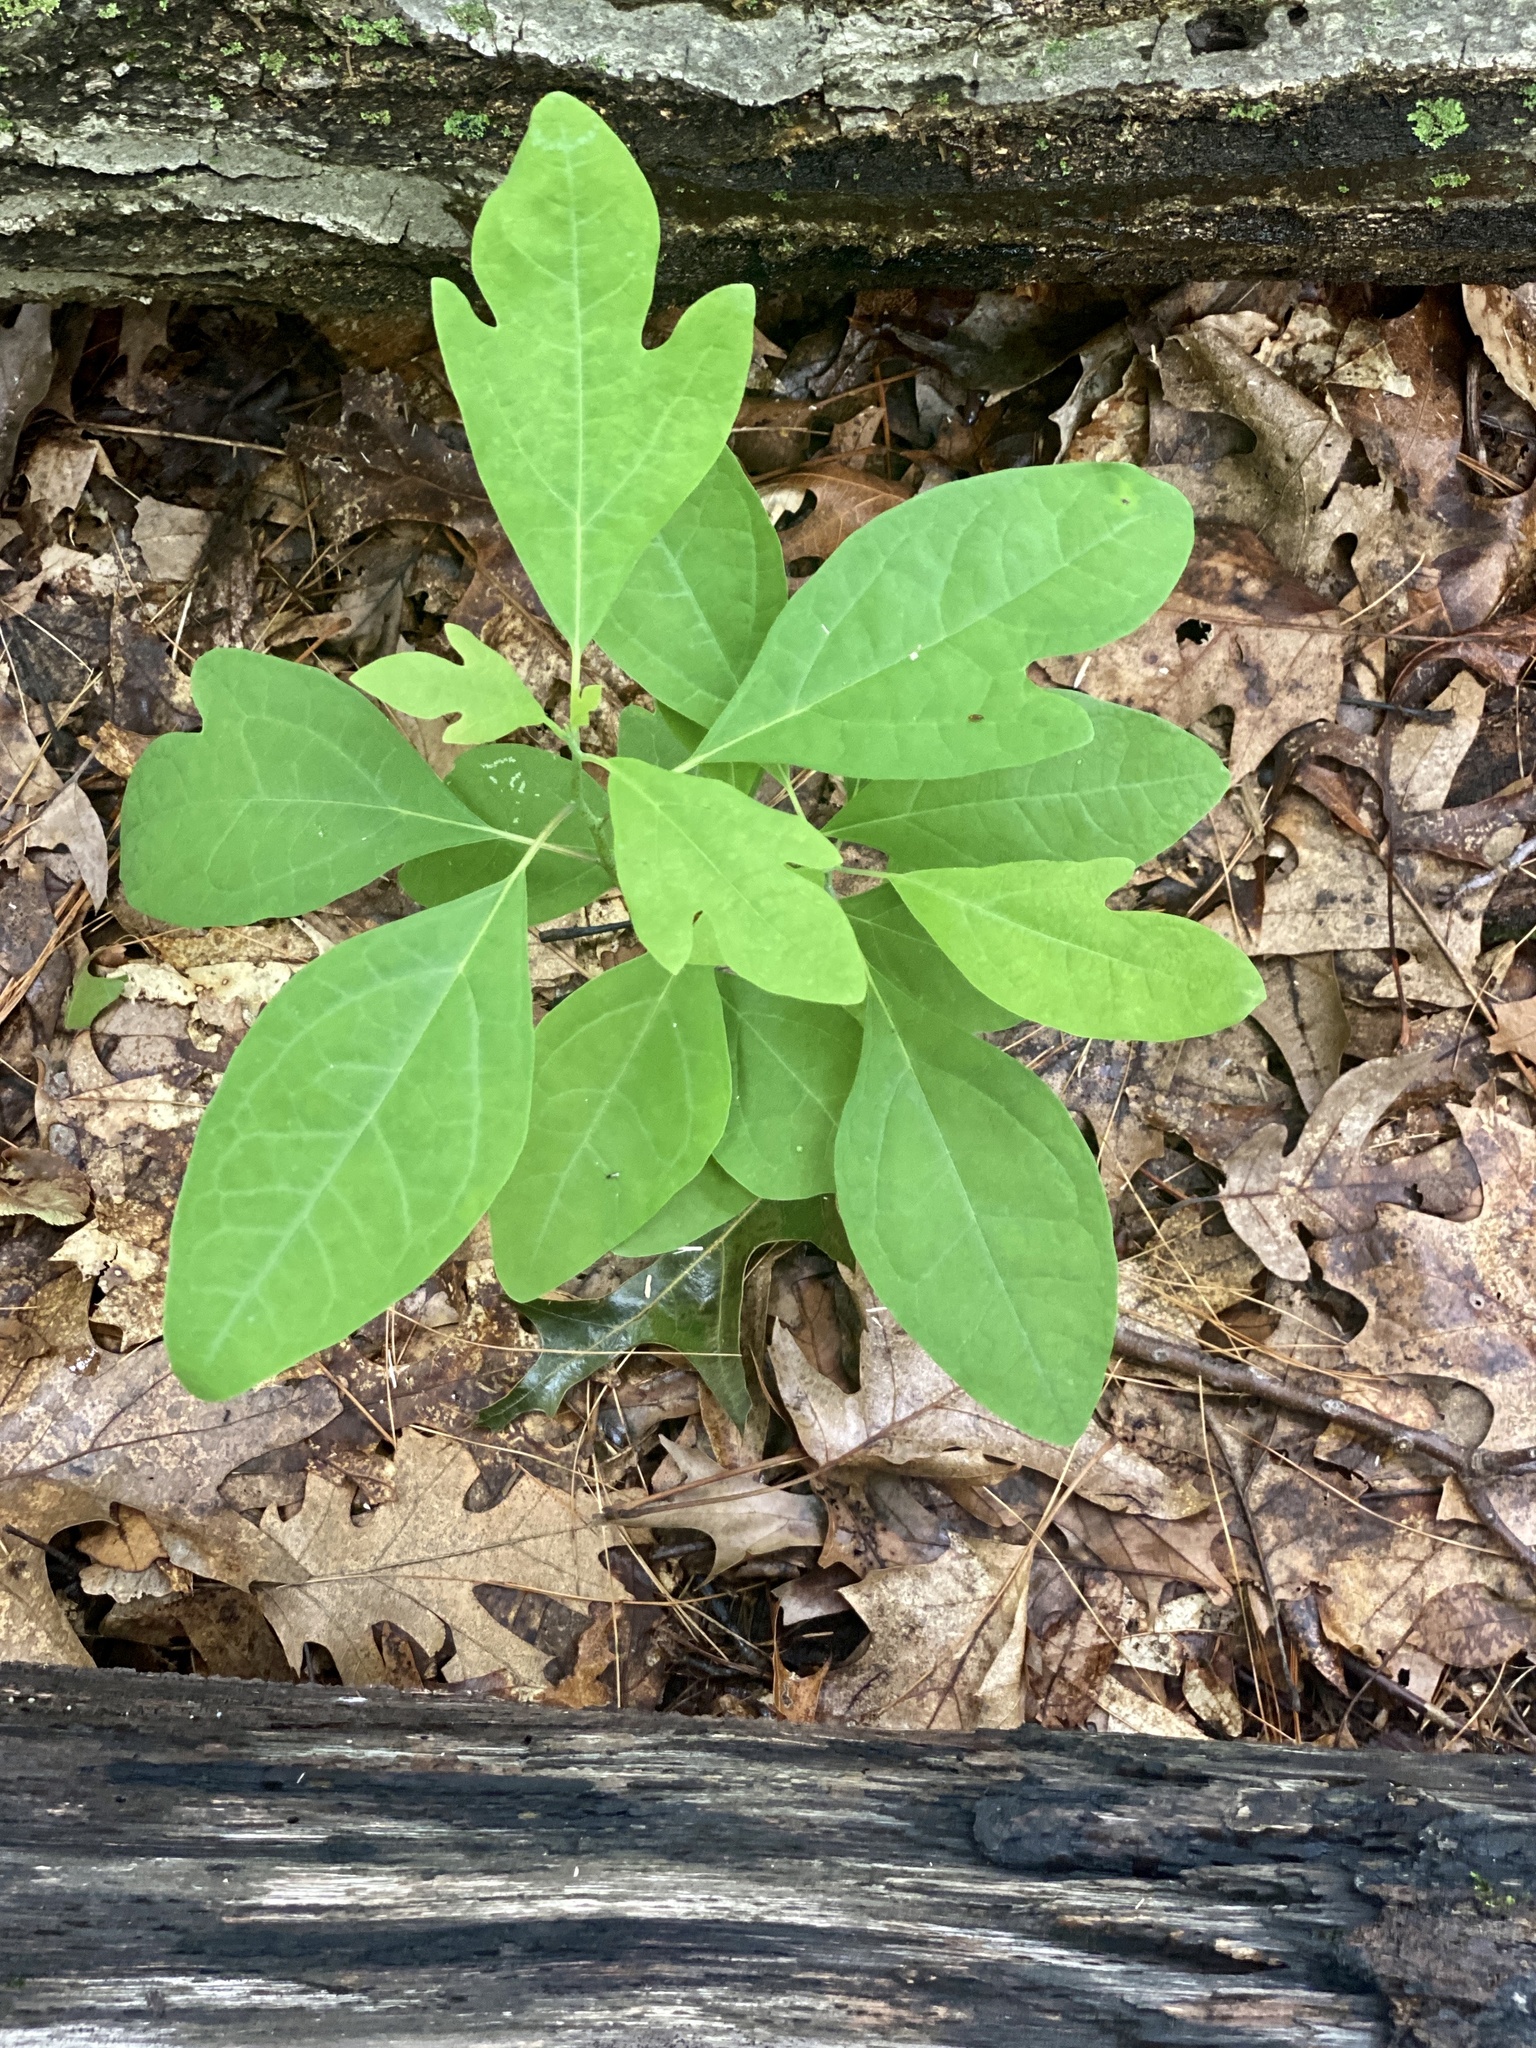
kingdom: Plantae
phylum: Tracheophyta
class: Magnoliopsida
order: Laurales
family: Lauraceae
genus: Sassafras
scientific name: Sassafras albidum
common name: Sassafras
